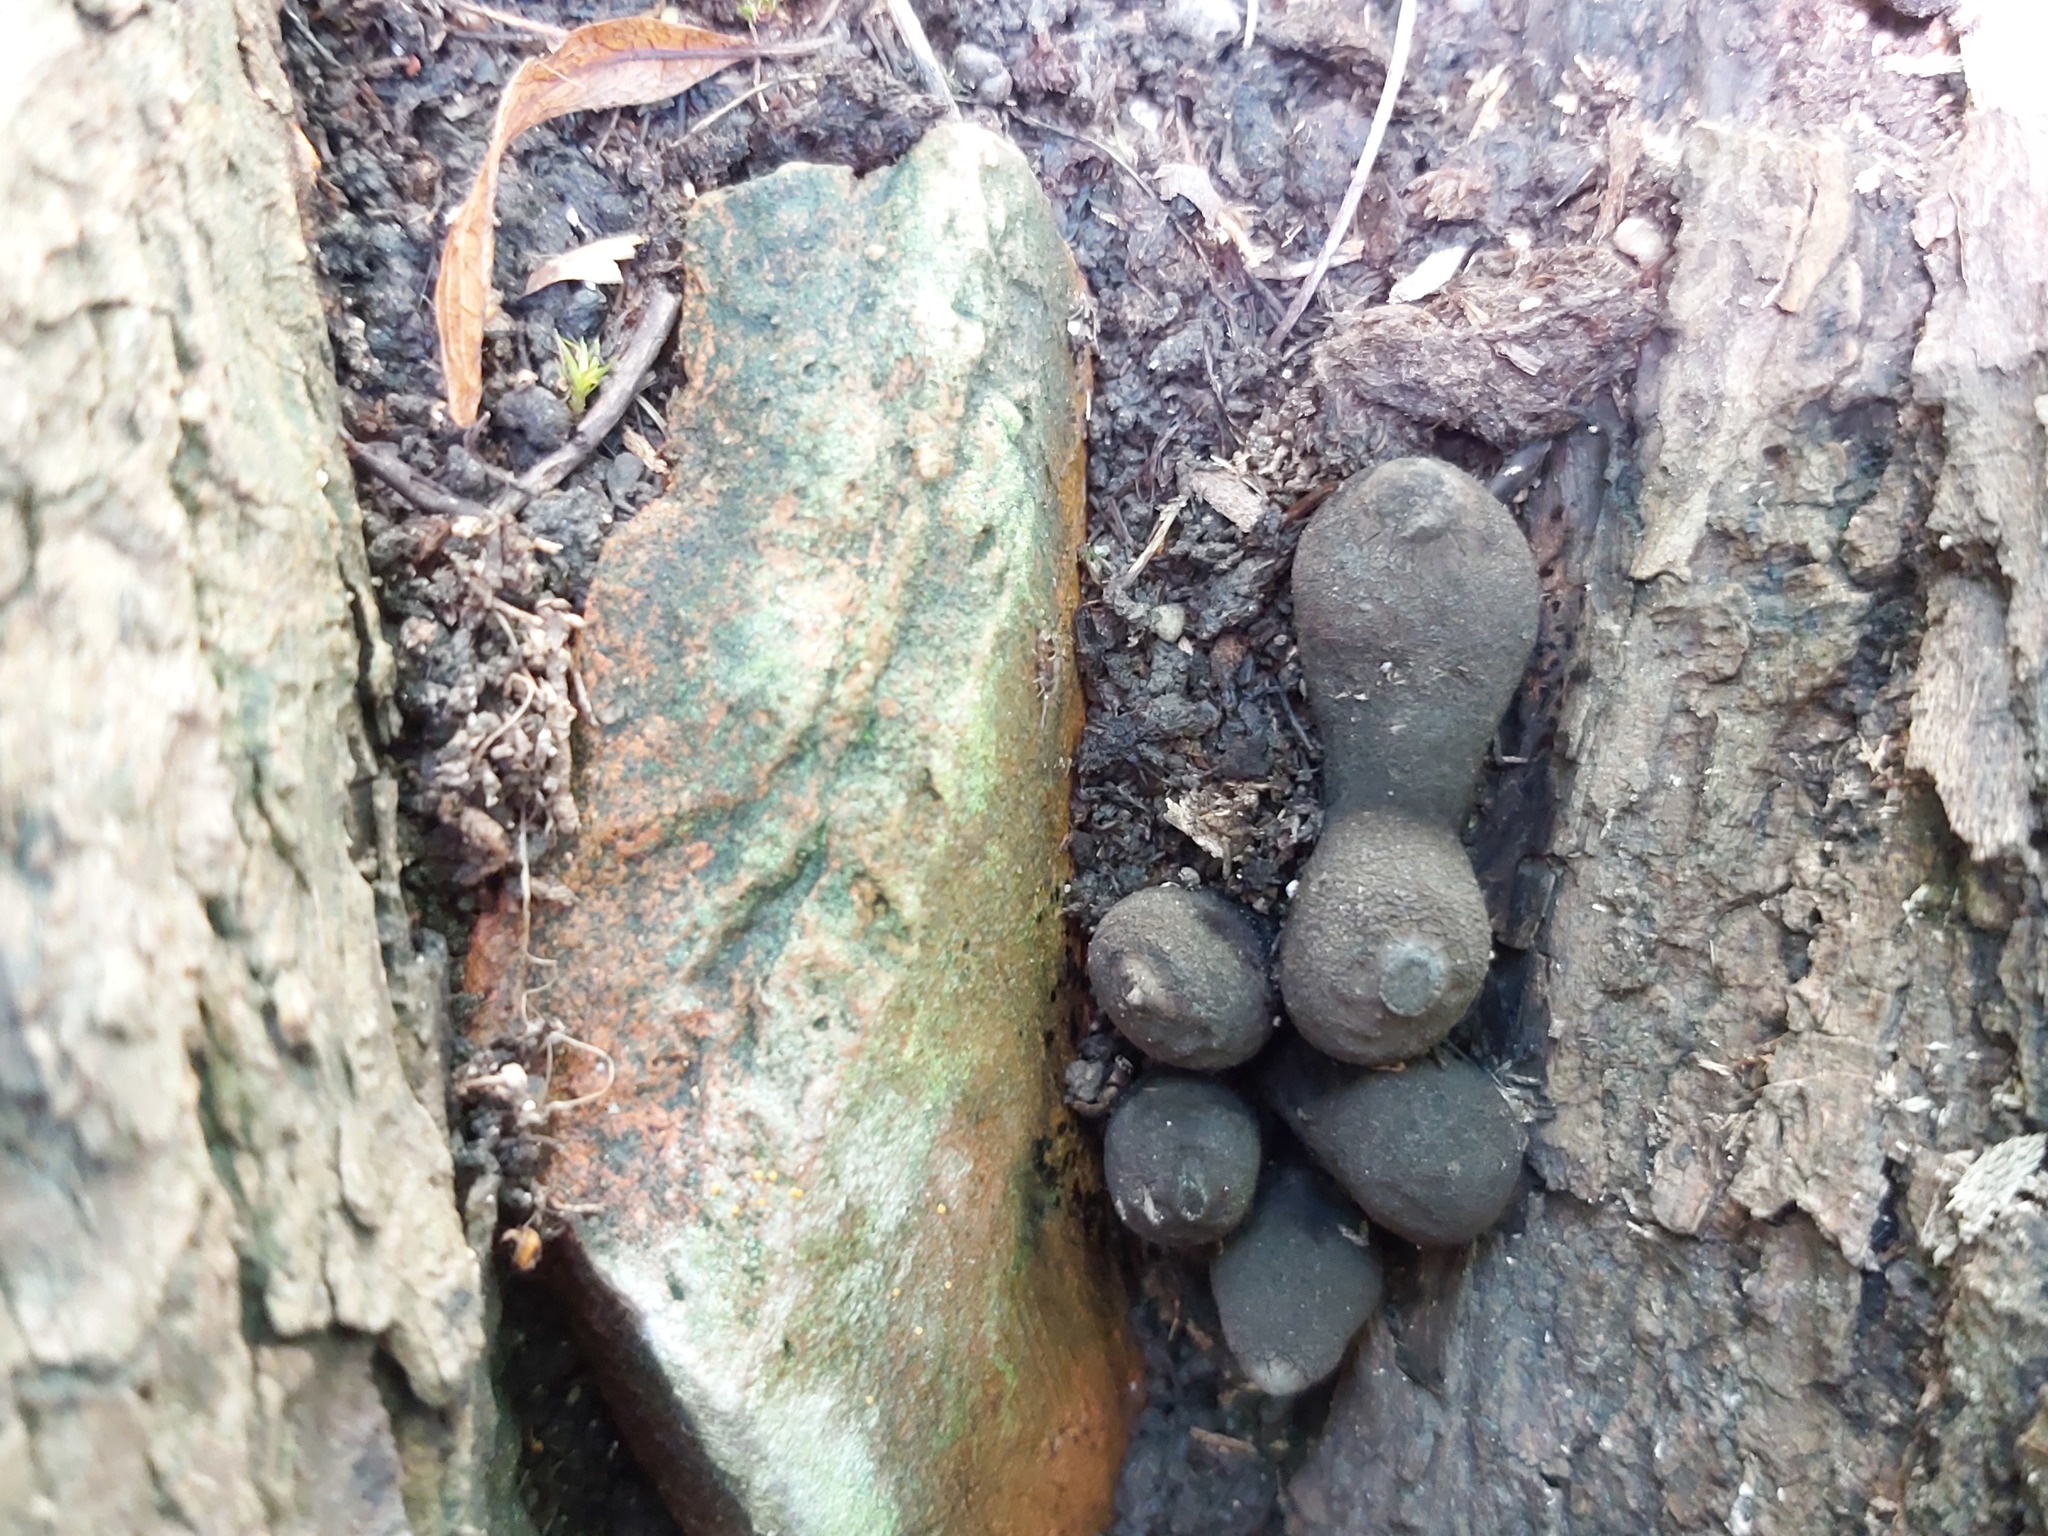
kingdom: Fungi
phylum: Ascomycota
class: Sordariomycetes
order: Xylariales
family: Xylariaceae
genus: Xylaria
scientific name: Xylaria polymorpha
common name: Dead man's fingers
